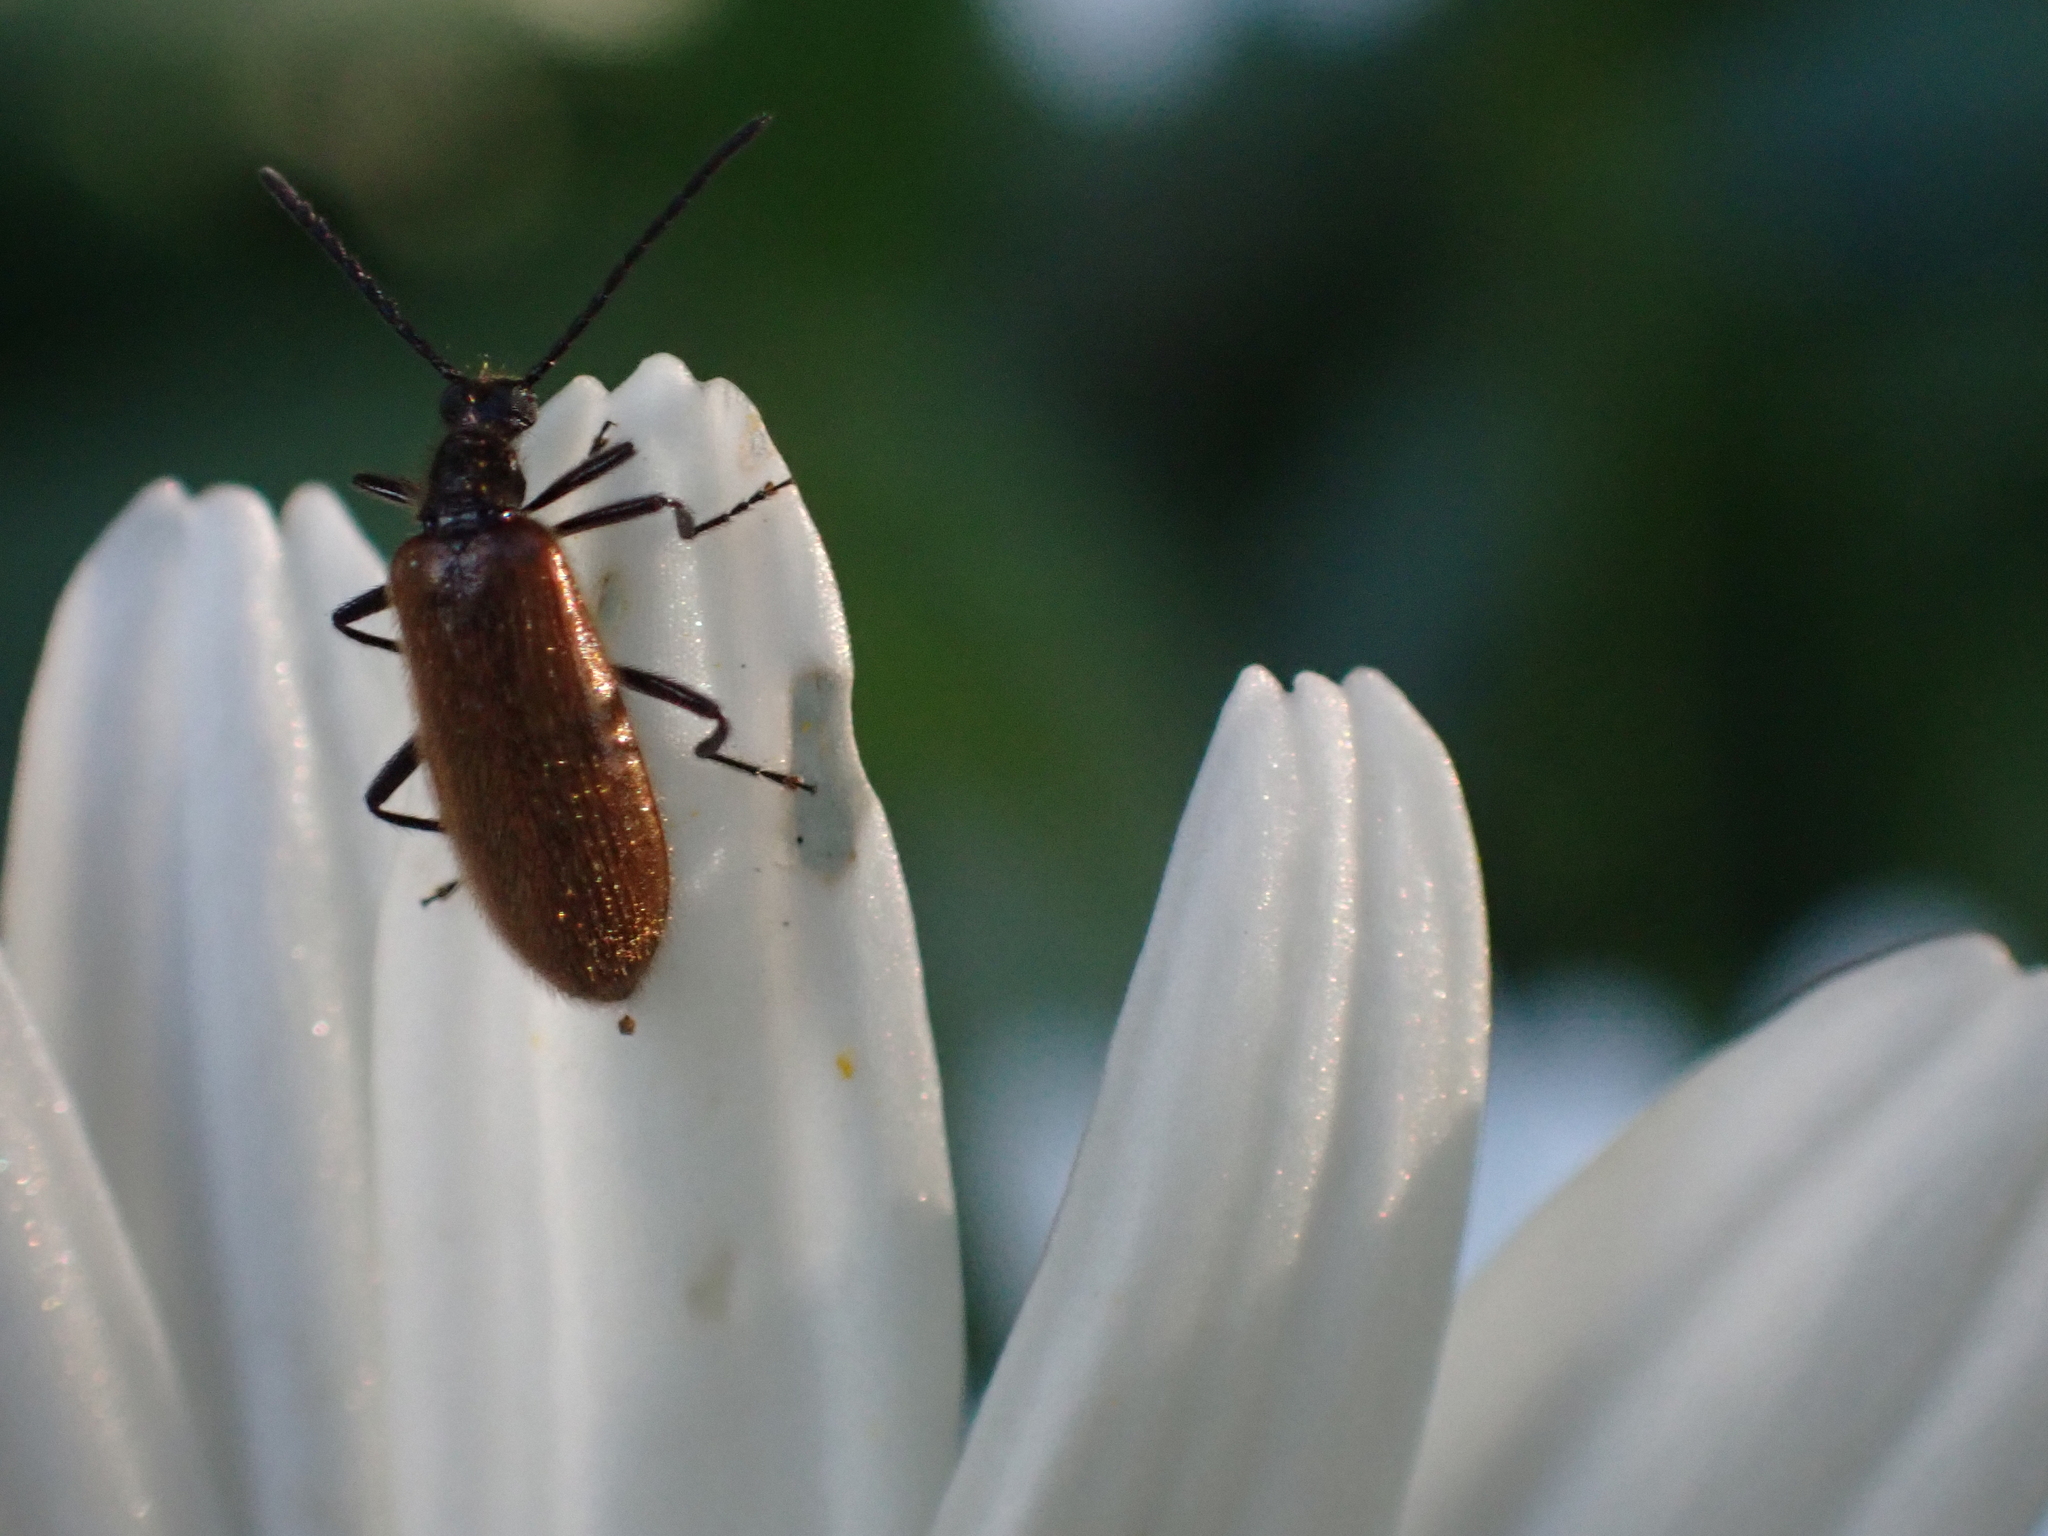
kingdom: Animalia
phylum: Arthropoda
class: Insecta
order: Coleoptera
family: Tenebrionidae
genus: Lagria
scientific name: Lagria hirta
